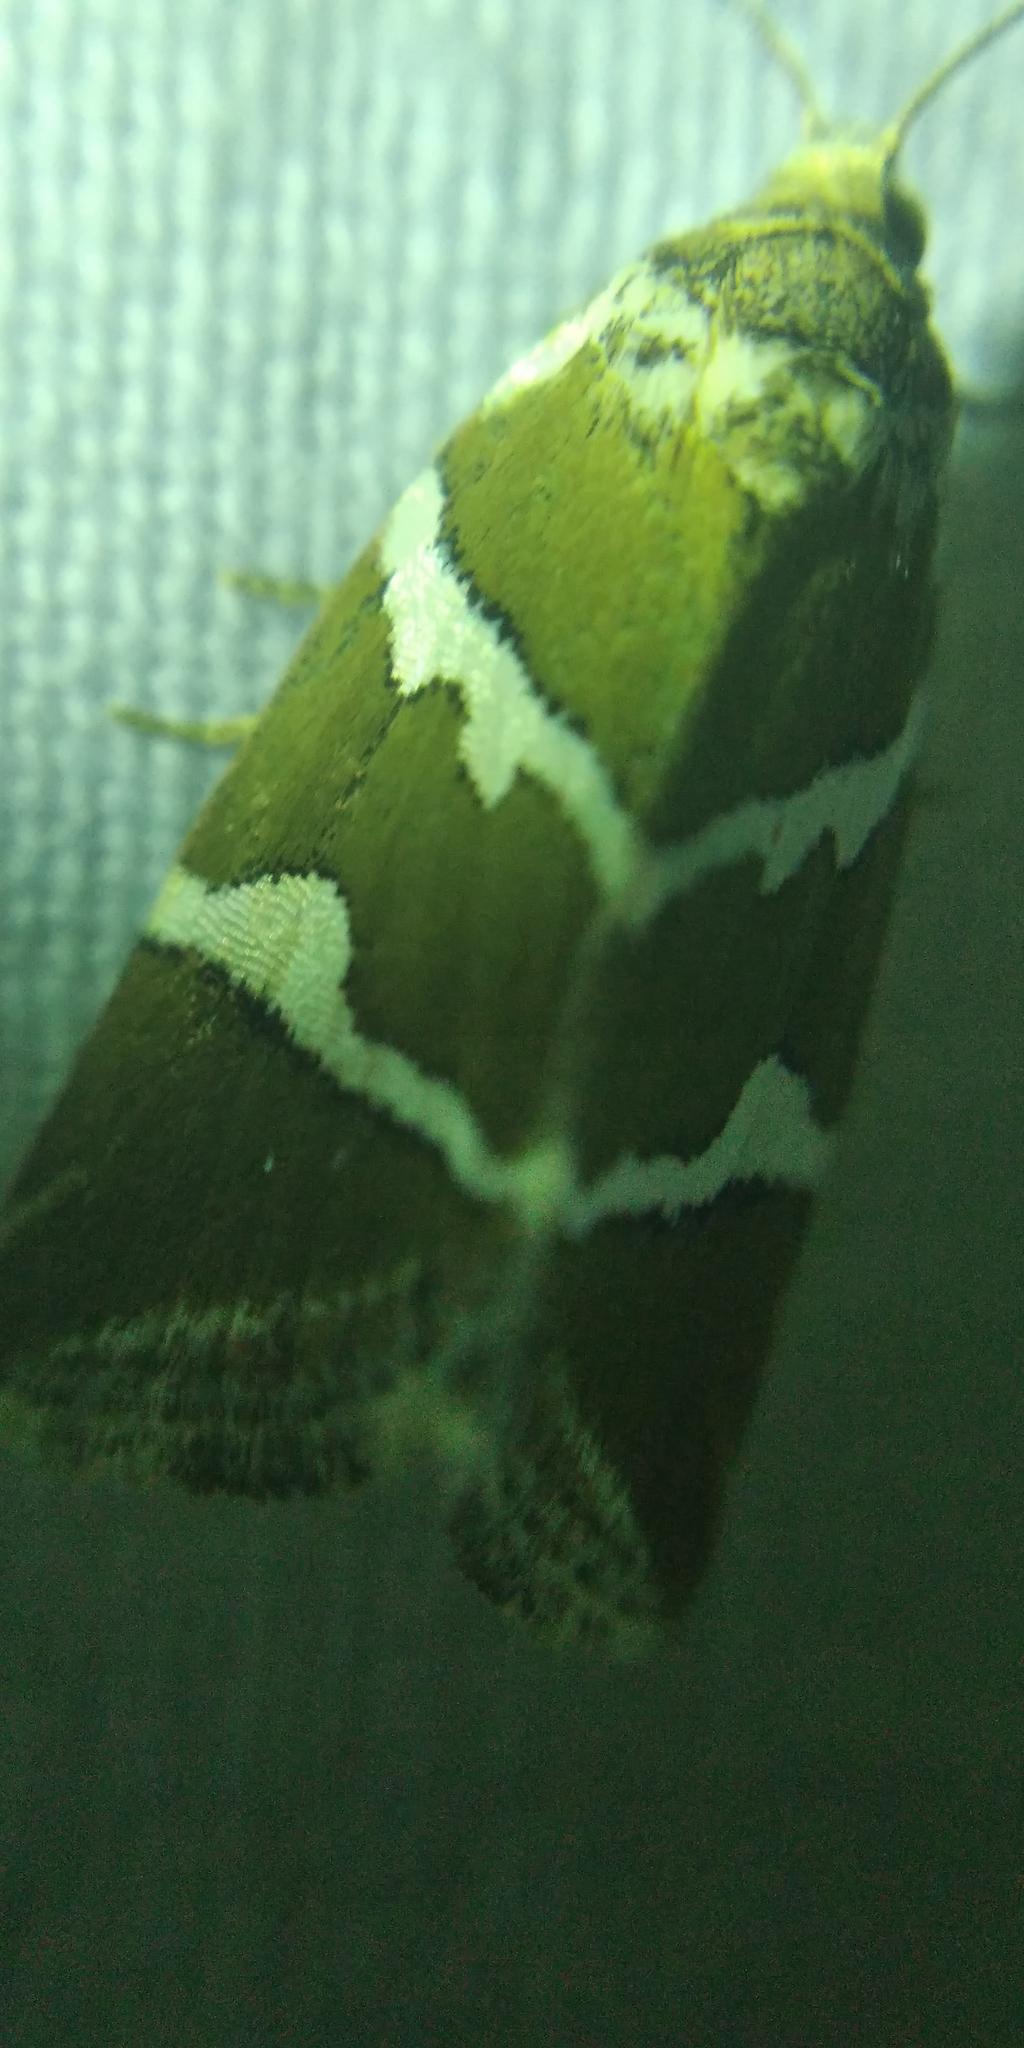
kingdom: Animalia
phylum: Arthropoda
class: Insecta
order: Lepidoptera
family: Noctuidae
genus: Deltote
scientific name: Deltote bankiana
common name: Silver barred
